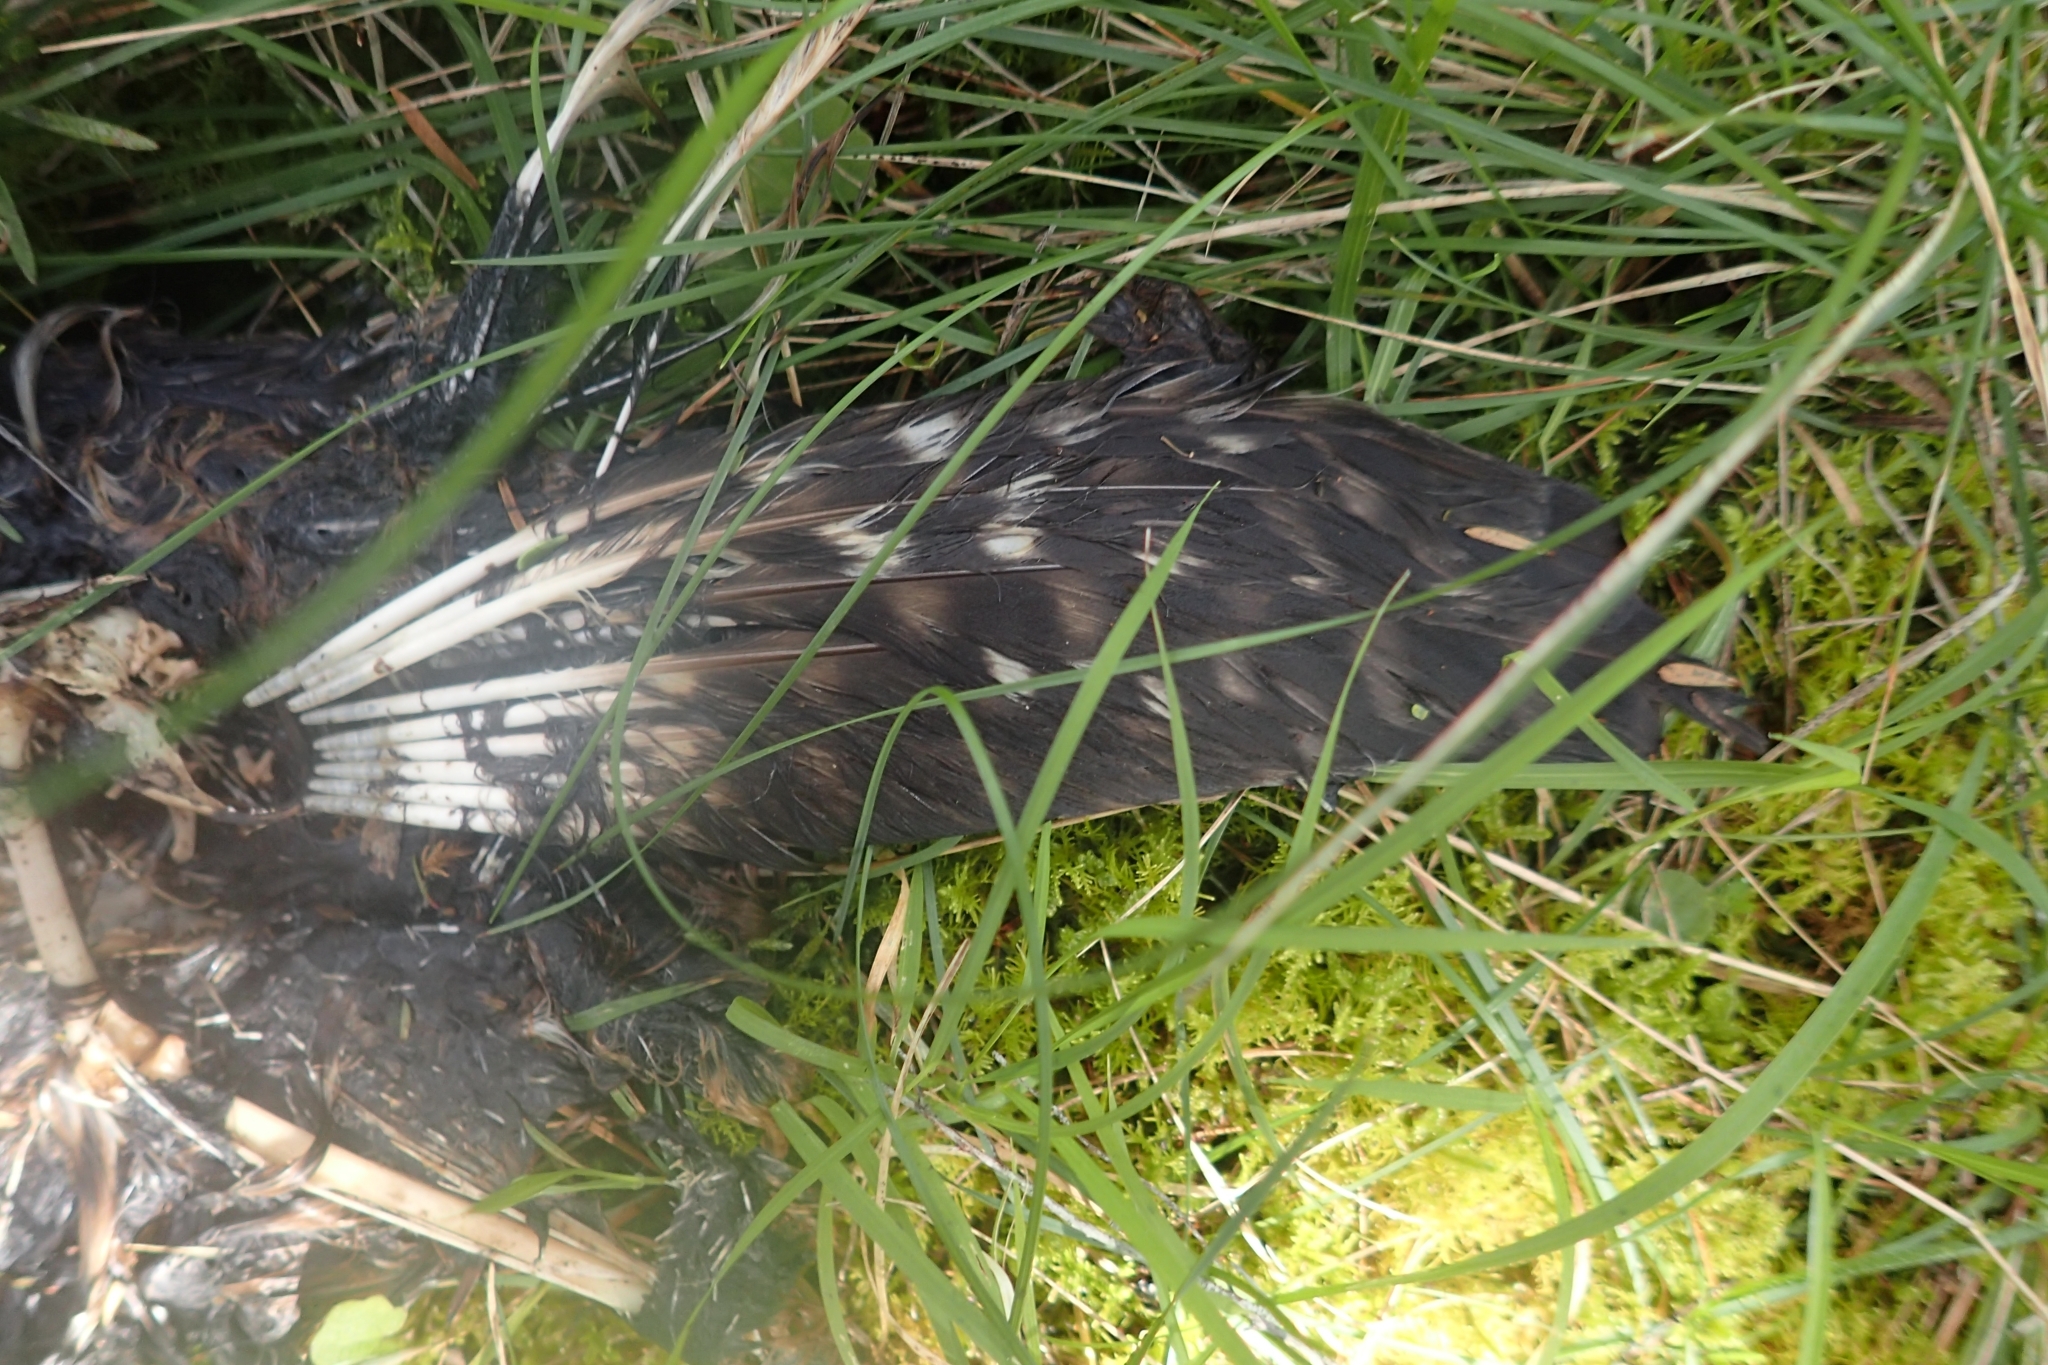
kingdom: Animalia
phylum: Chordata
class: Aves
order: Strigiformes
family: Strigidae
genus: Ninox
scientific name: Ninox novaeseelandiae
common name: Morepork
